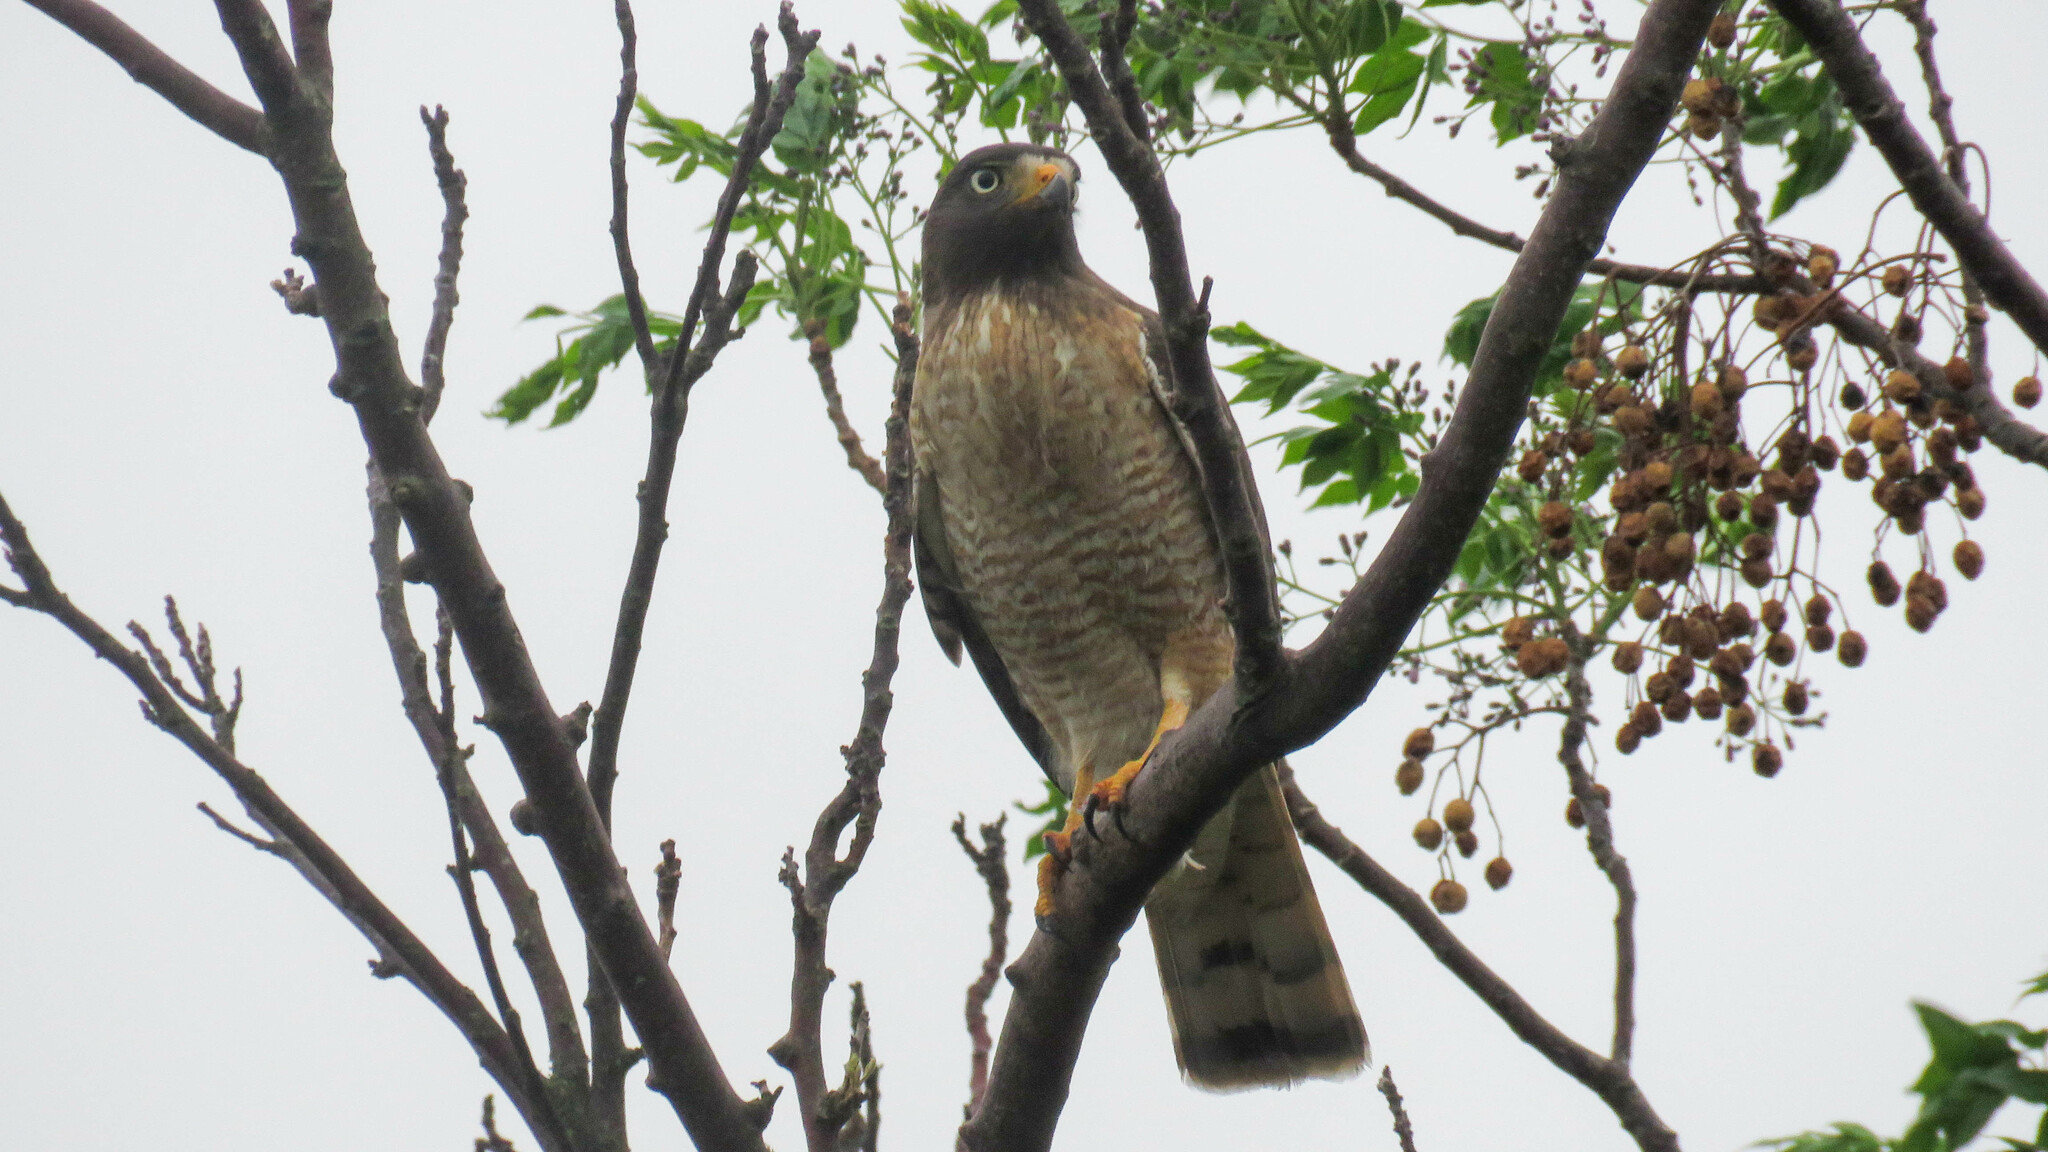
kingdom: Animalia
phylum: Chordata
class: Aves
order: Accipitriformes
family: Accipitridae
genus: Rupornis
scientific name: Rupornis magnirostris
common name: Roadside hawk
